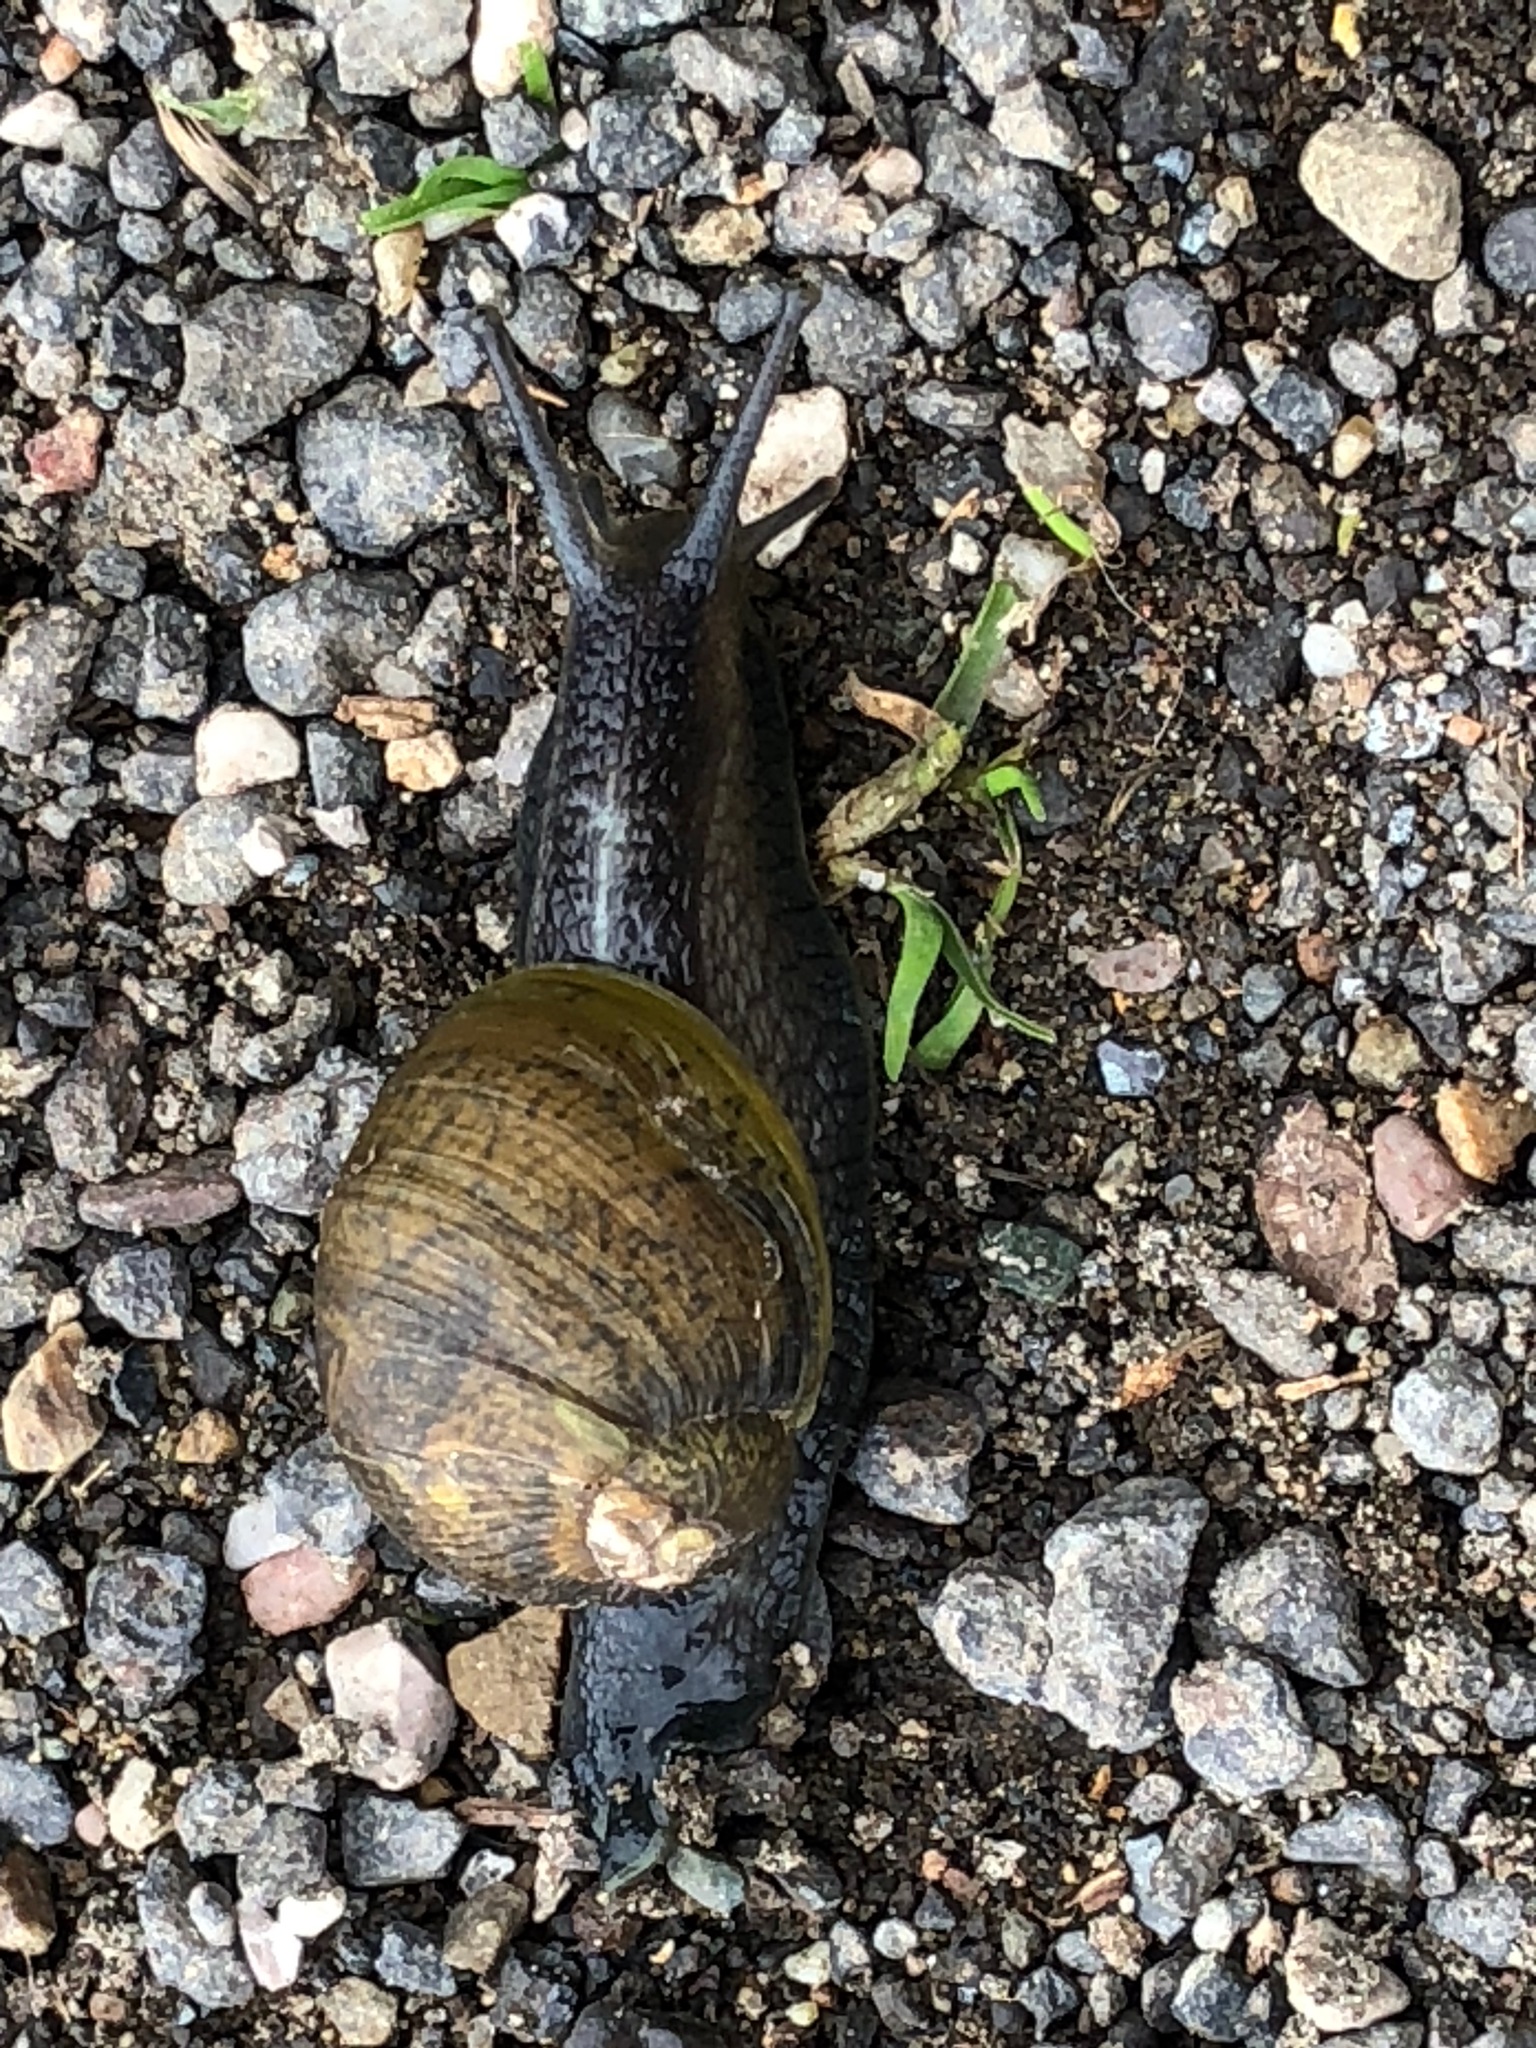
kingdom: Animalia
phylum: Mollusca
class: Gastropoda
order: Stylommatophora
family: Helicidae
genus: Cantareus
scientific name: Cantareus apertus
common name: Green gardensnail
